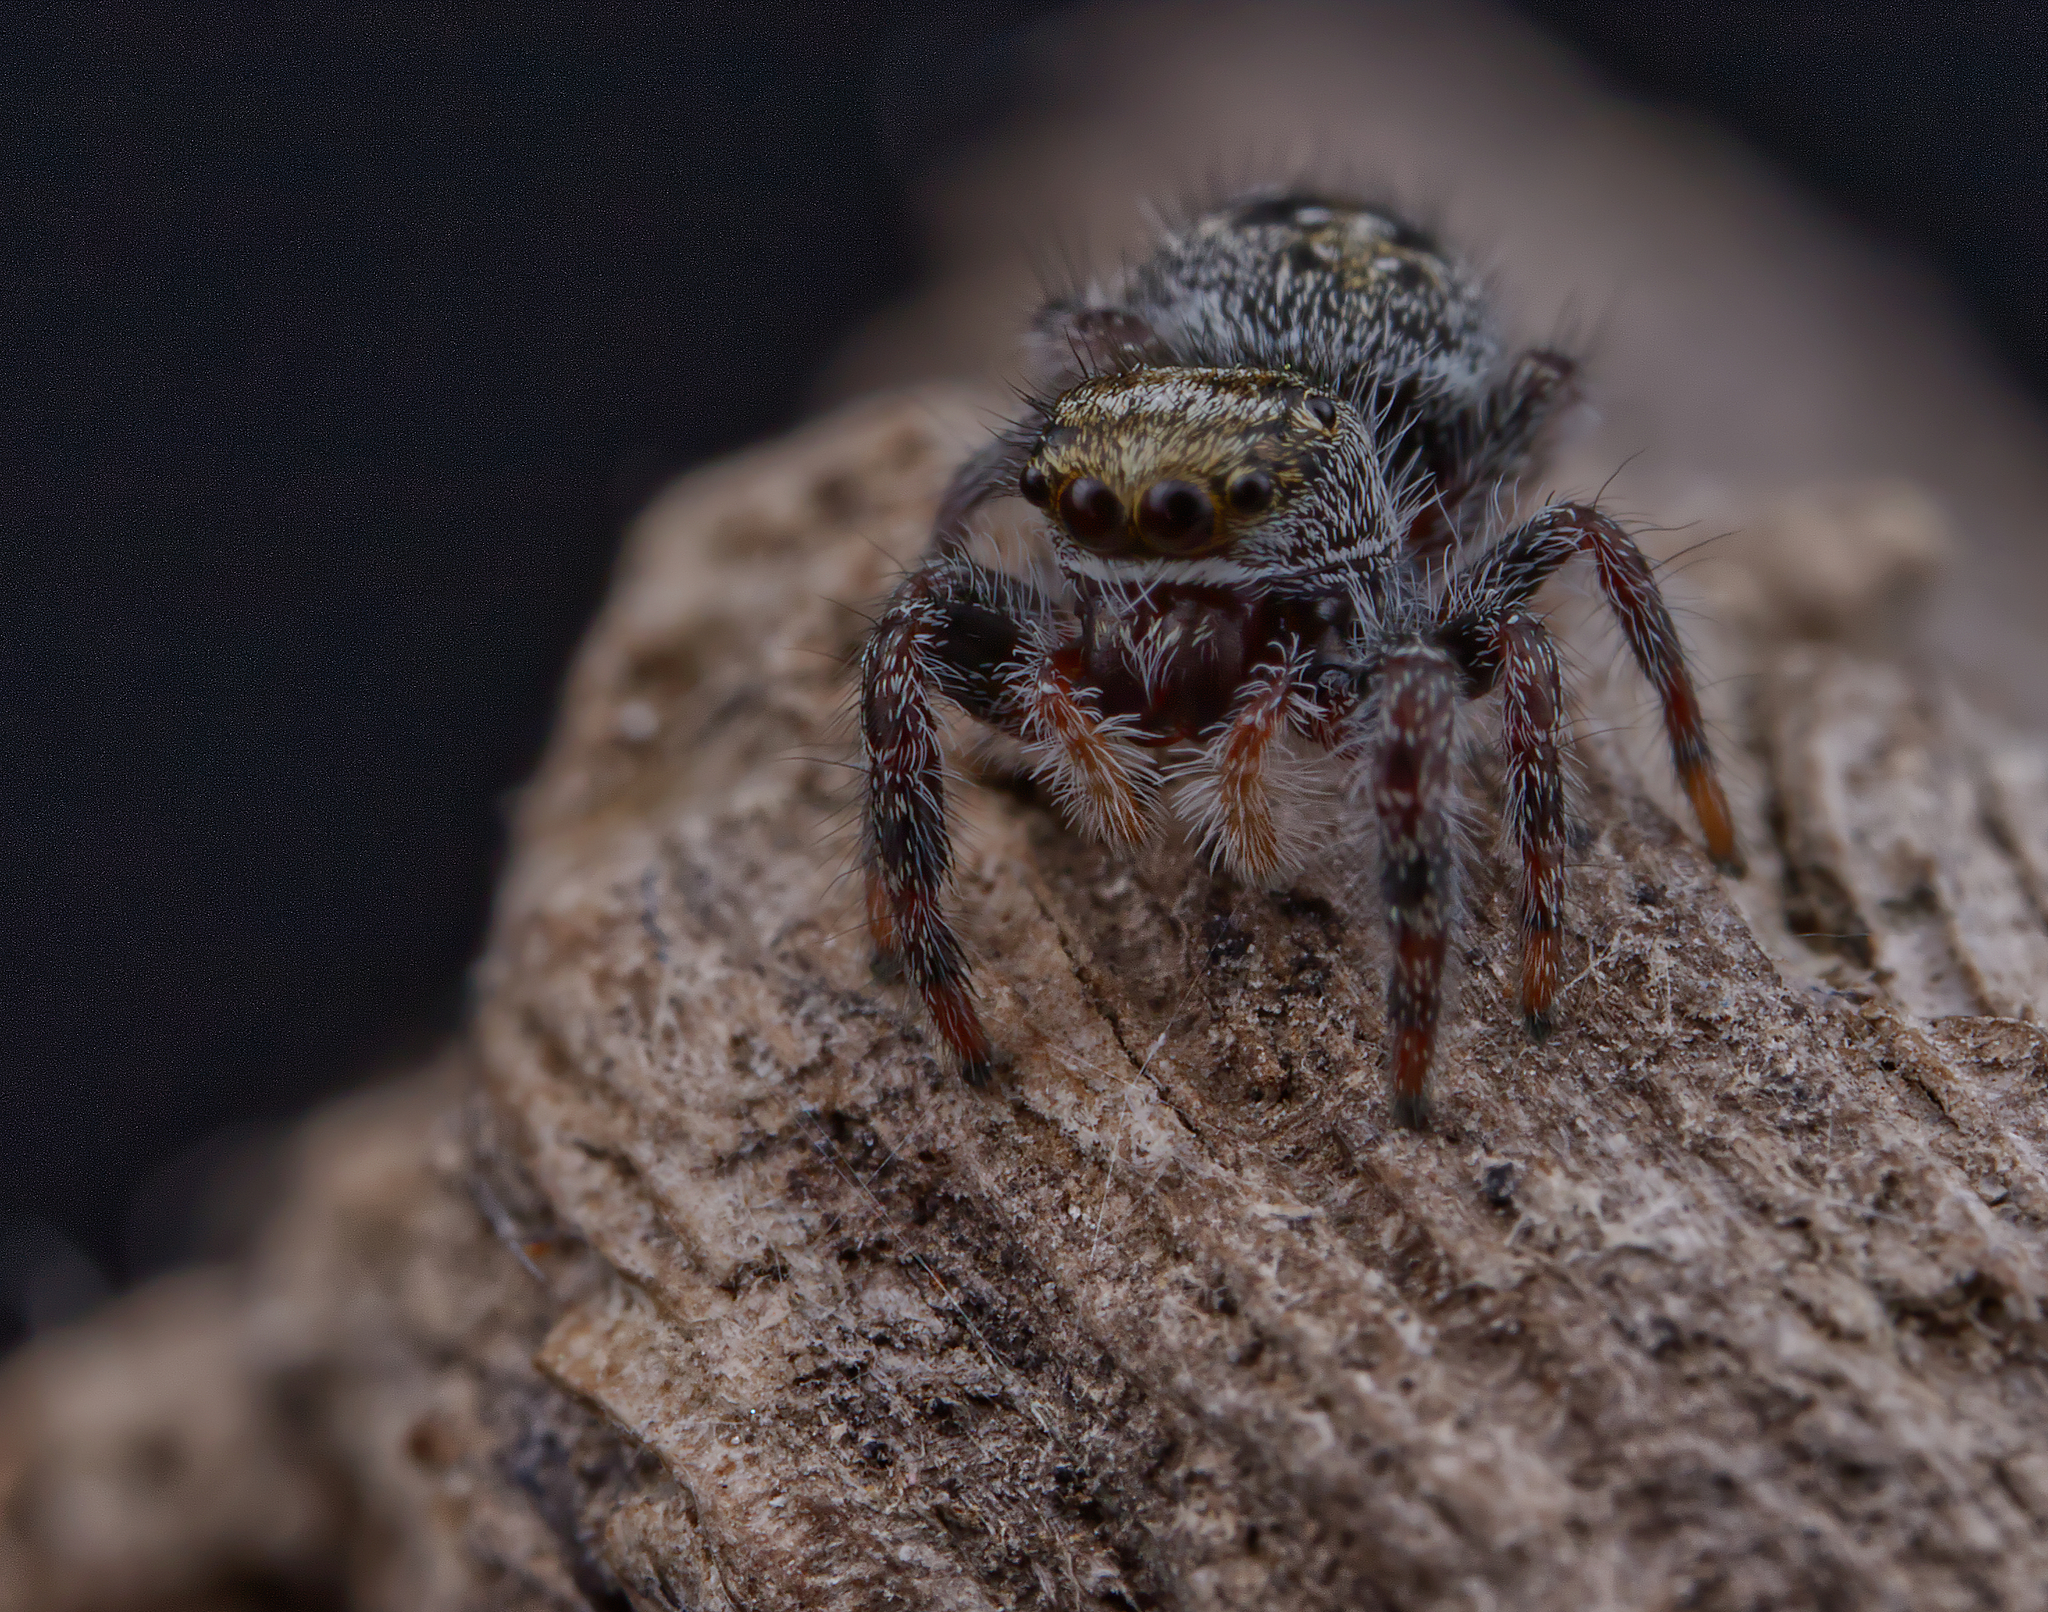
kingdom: Animalia
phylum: Arthropoda
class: Arachnida
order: Araneae
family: Salticidae
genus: Phidippus
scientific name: Phidippus purpuratus
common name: Marbled purple jumping spider
